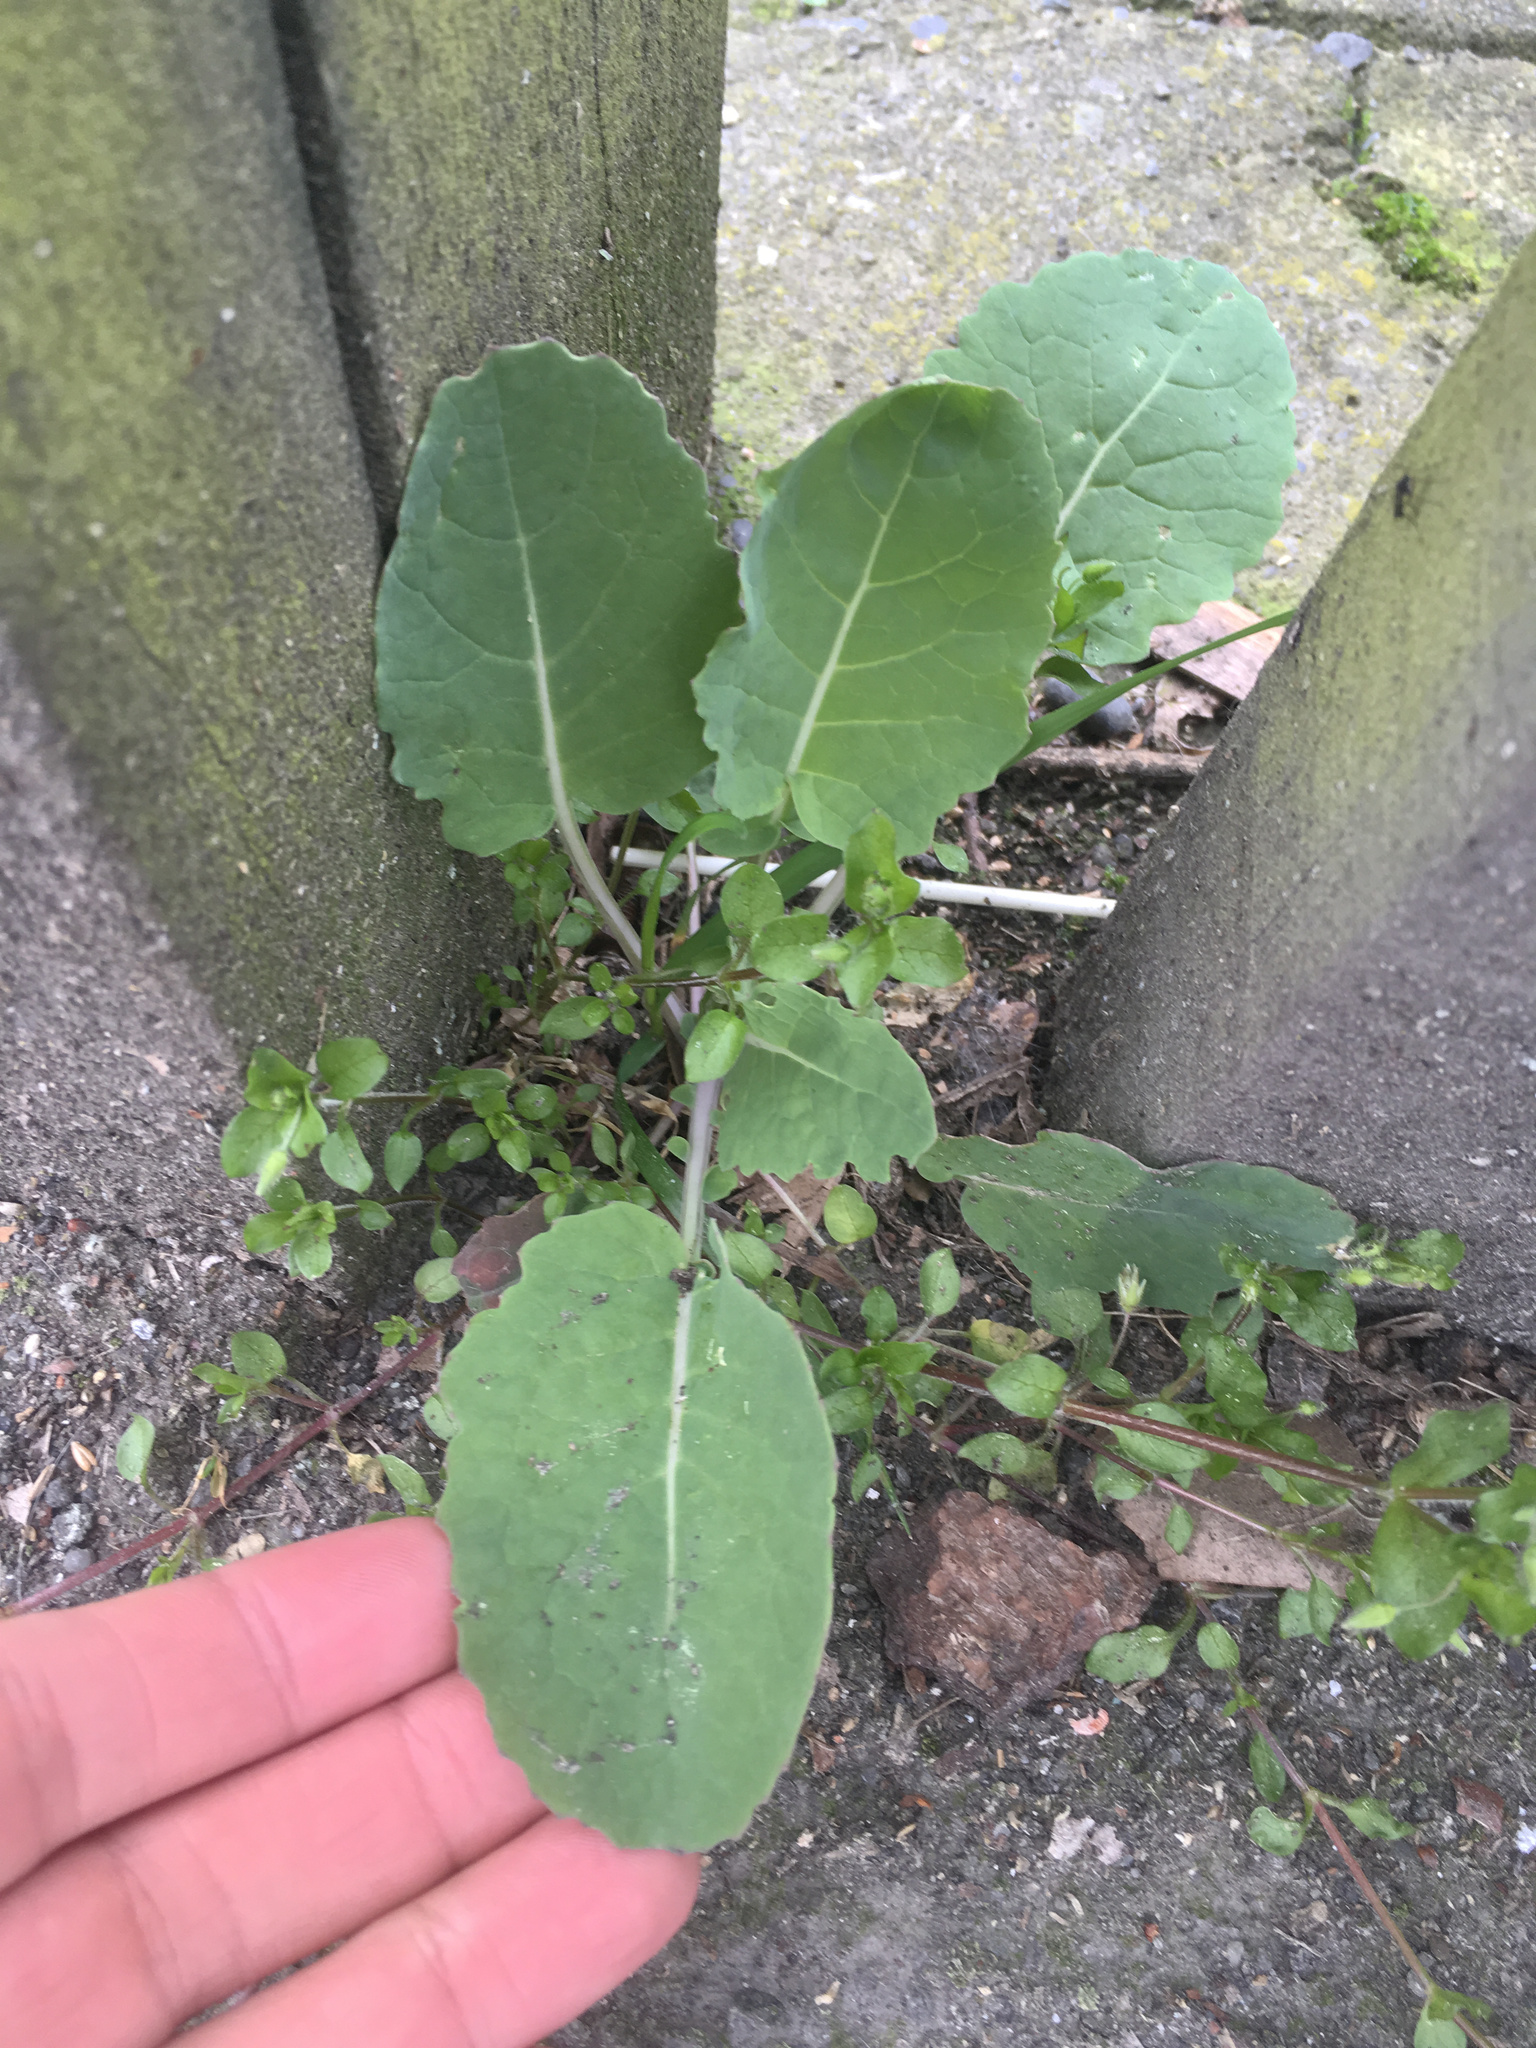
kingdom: Plantae
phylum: Tracheophyta
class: Magnoliopsida
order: Brassicales
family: Brassicaceae
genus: Brassica
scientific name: Brassica oleracea
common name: Cabbage
